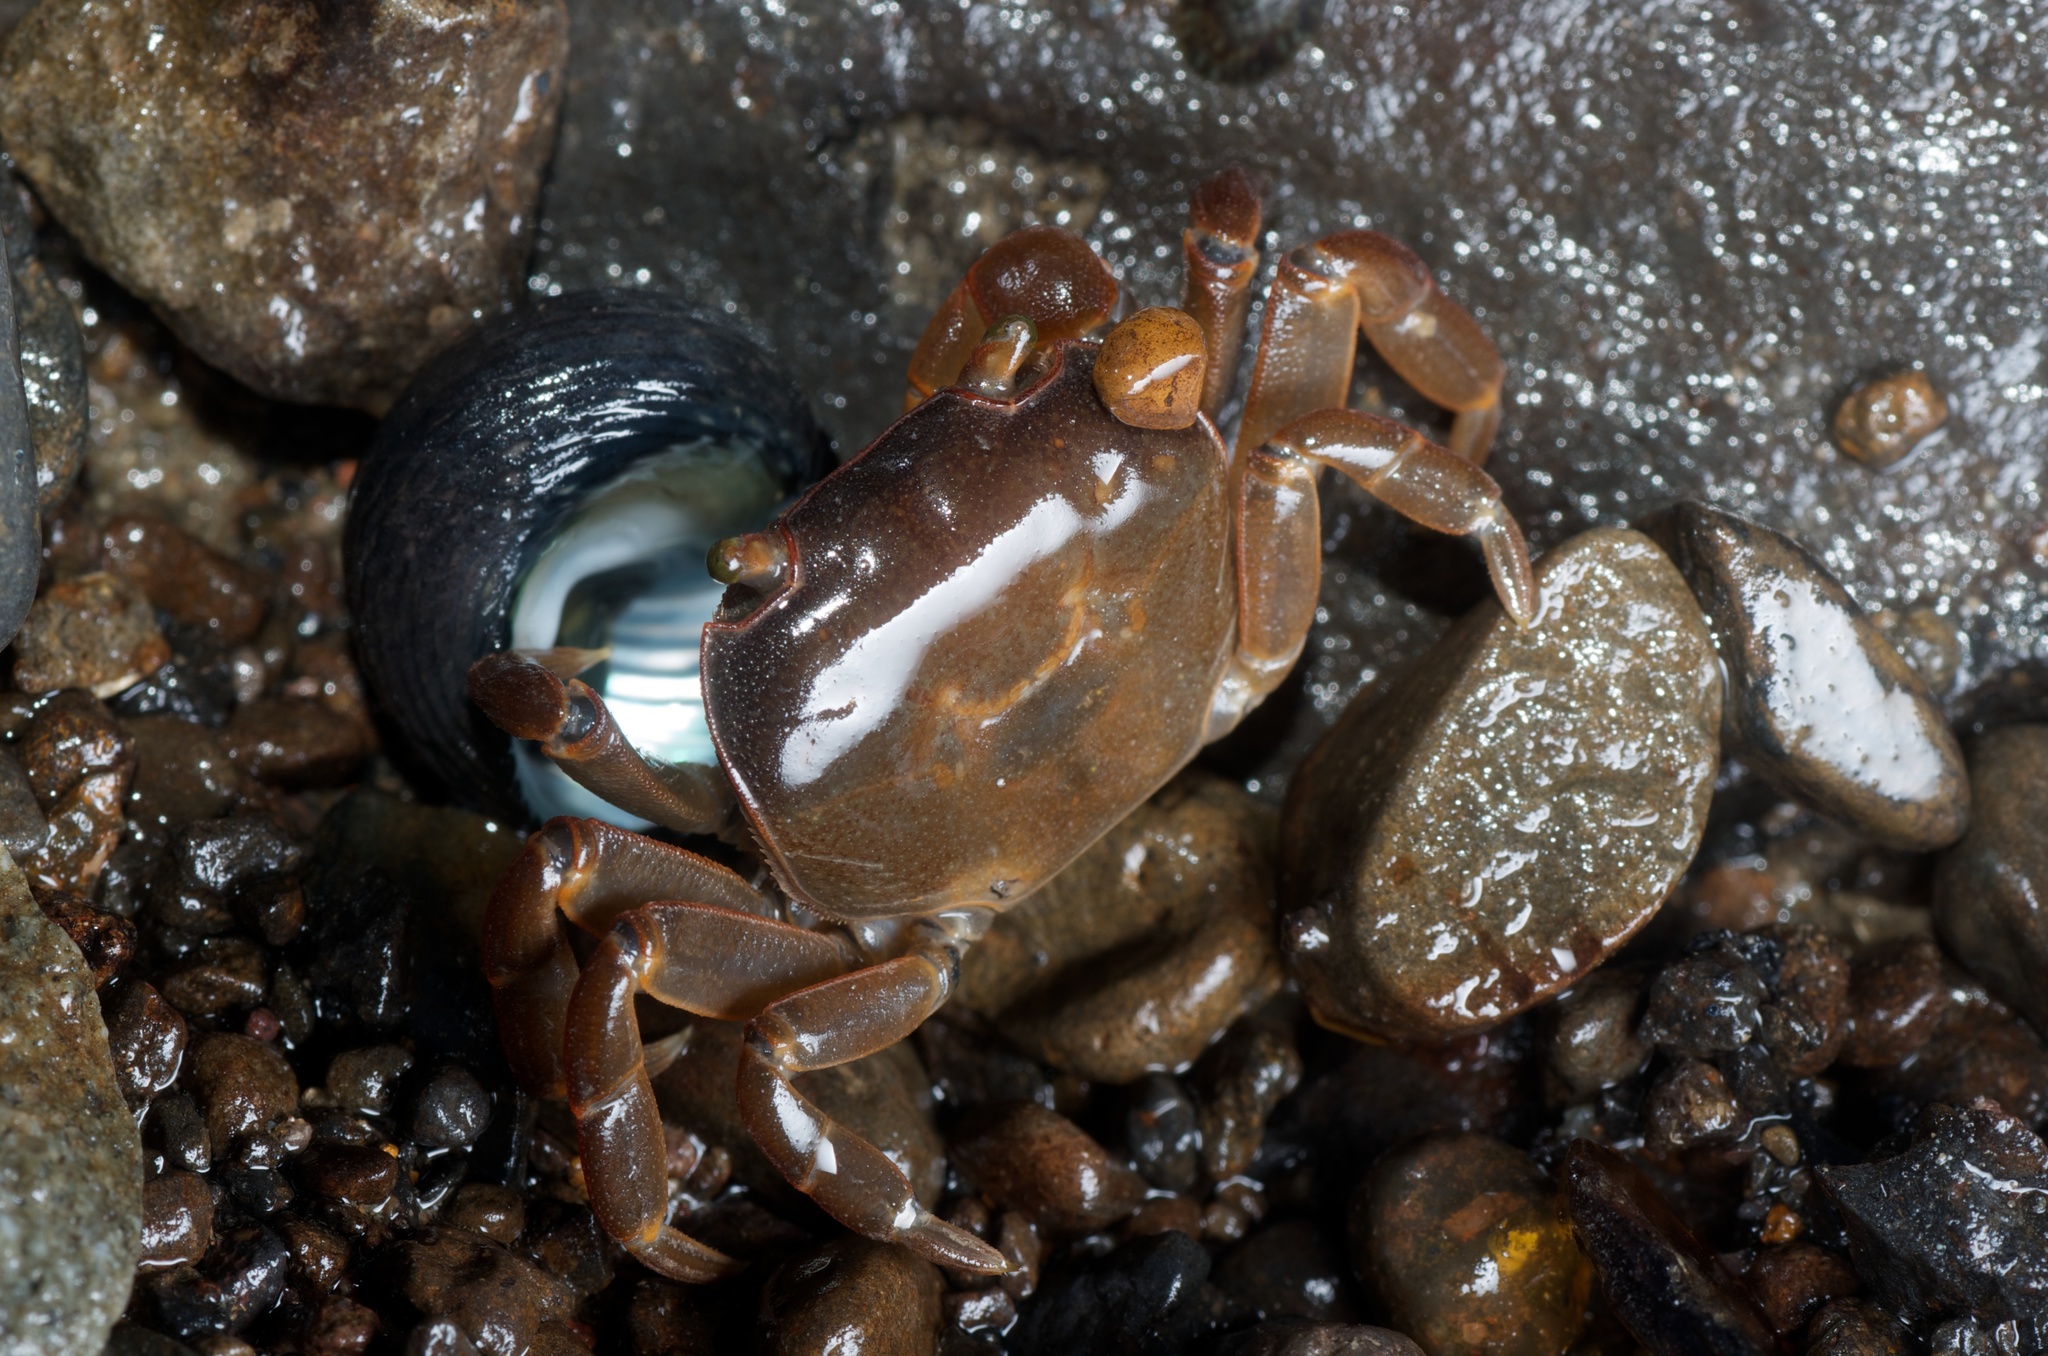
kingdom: Animalia
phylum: Arthropoda
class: Malacostraca
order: Decapoda
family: Varunidae
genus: Cyclograpsus
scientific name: Cyclograpsus lavauxi
